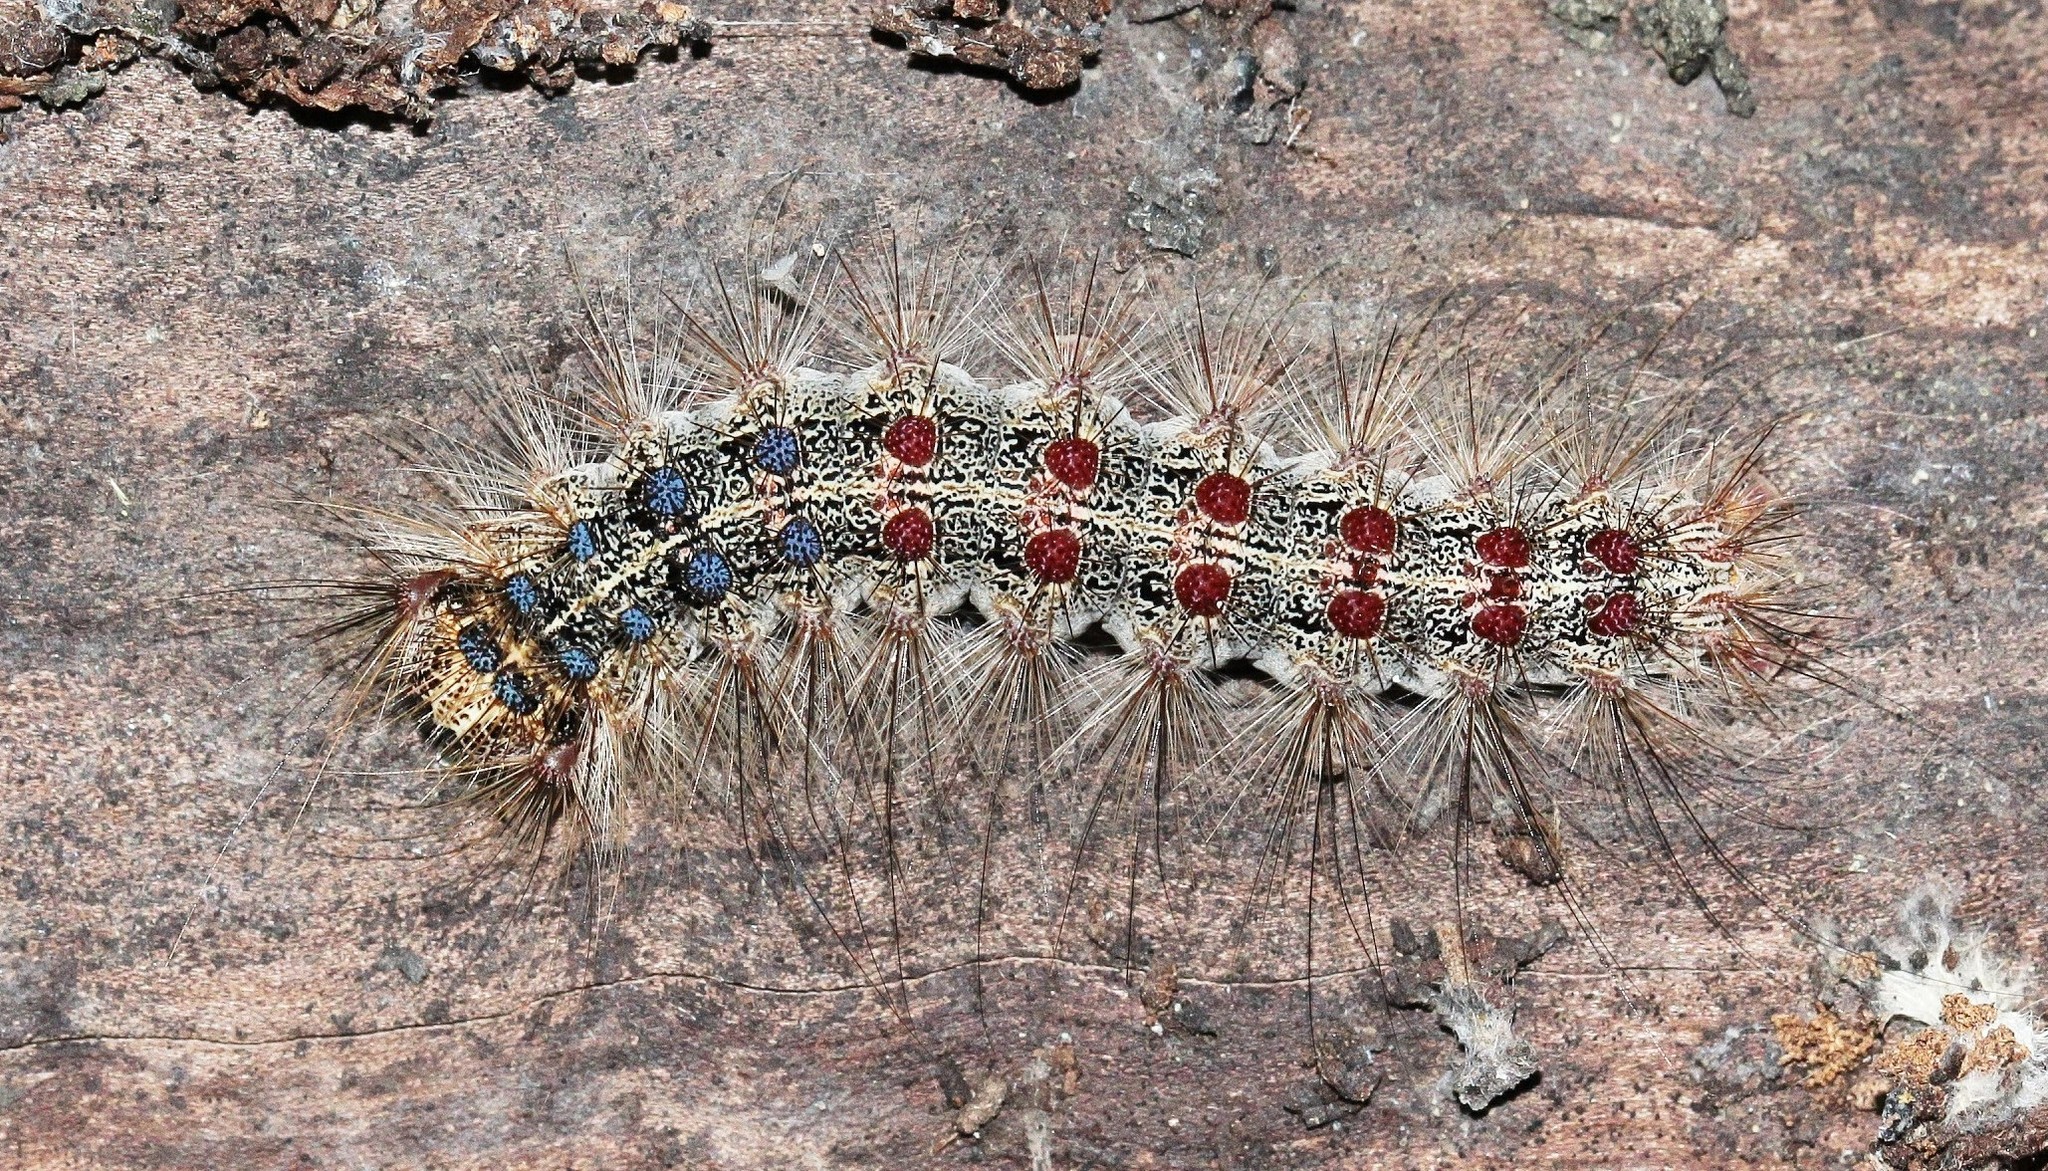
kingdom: Animalia
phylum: Arthropoda
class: Insecta
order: Lepidoptera
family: Erebidae
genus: Lymantria
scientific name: Lymantria dispar
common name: Gypsy moth
